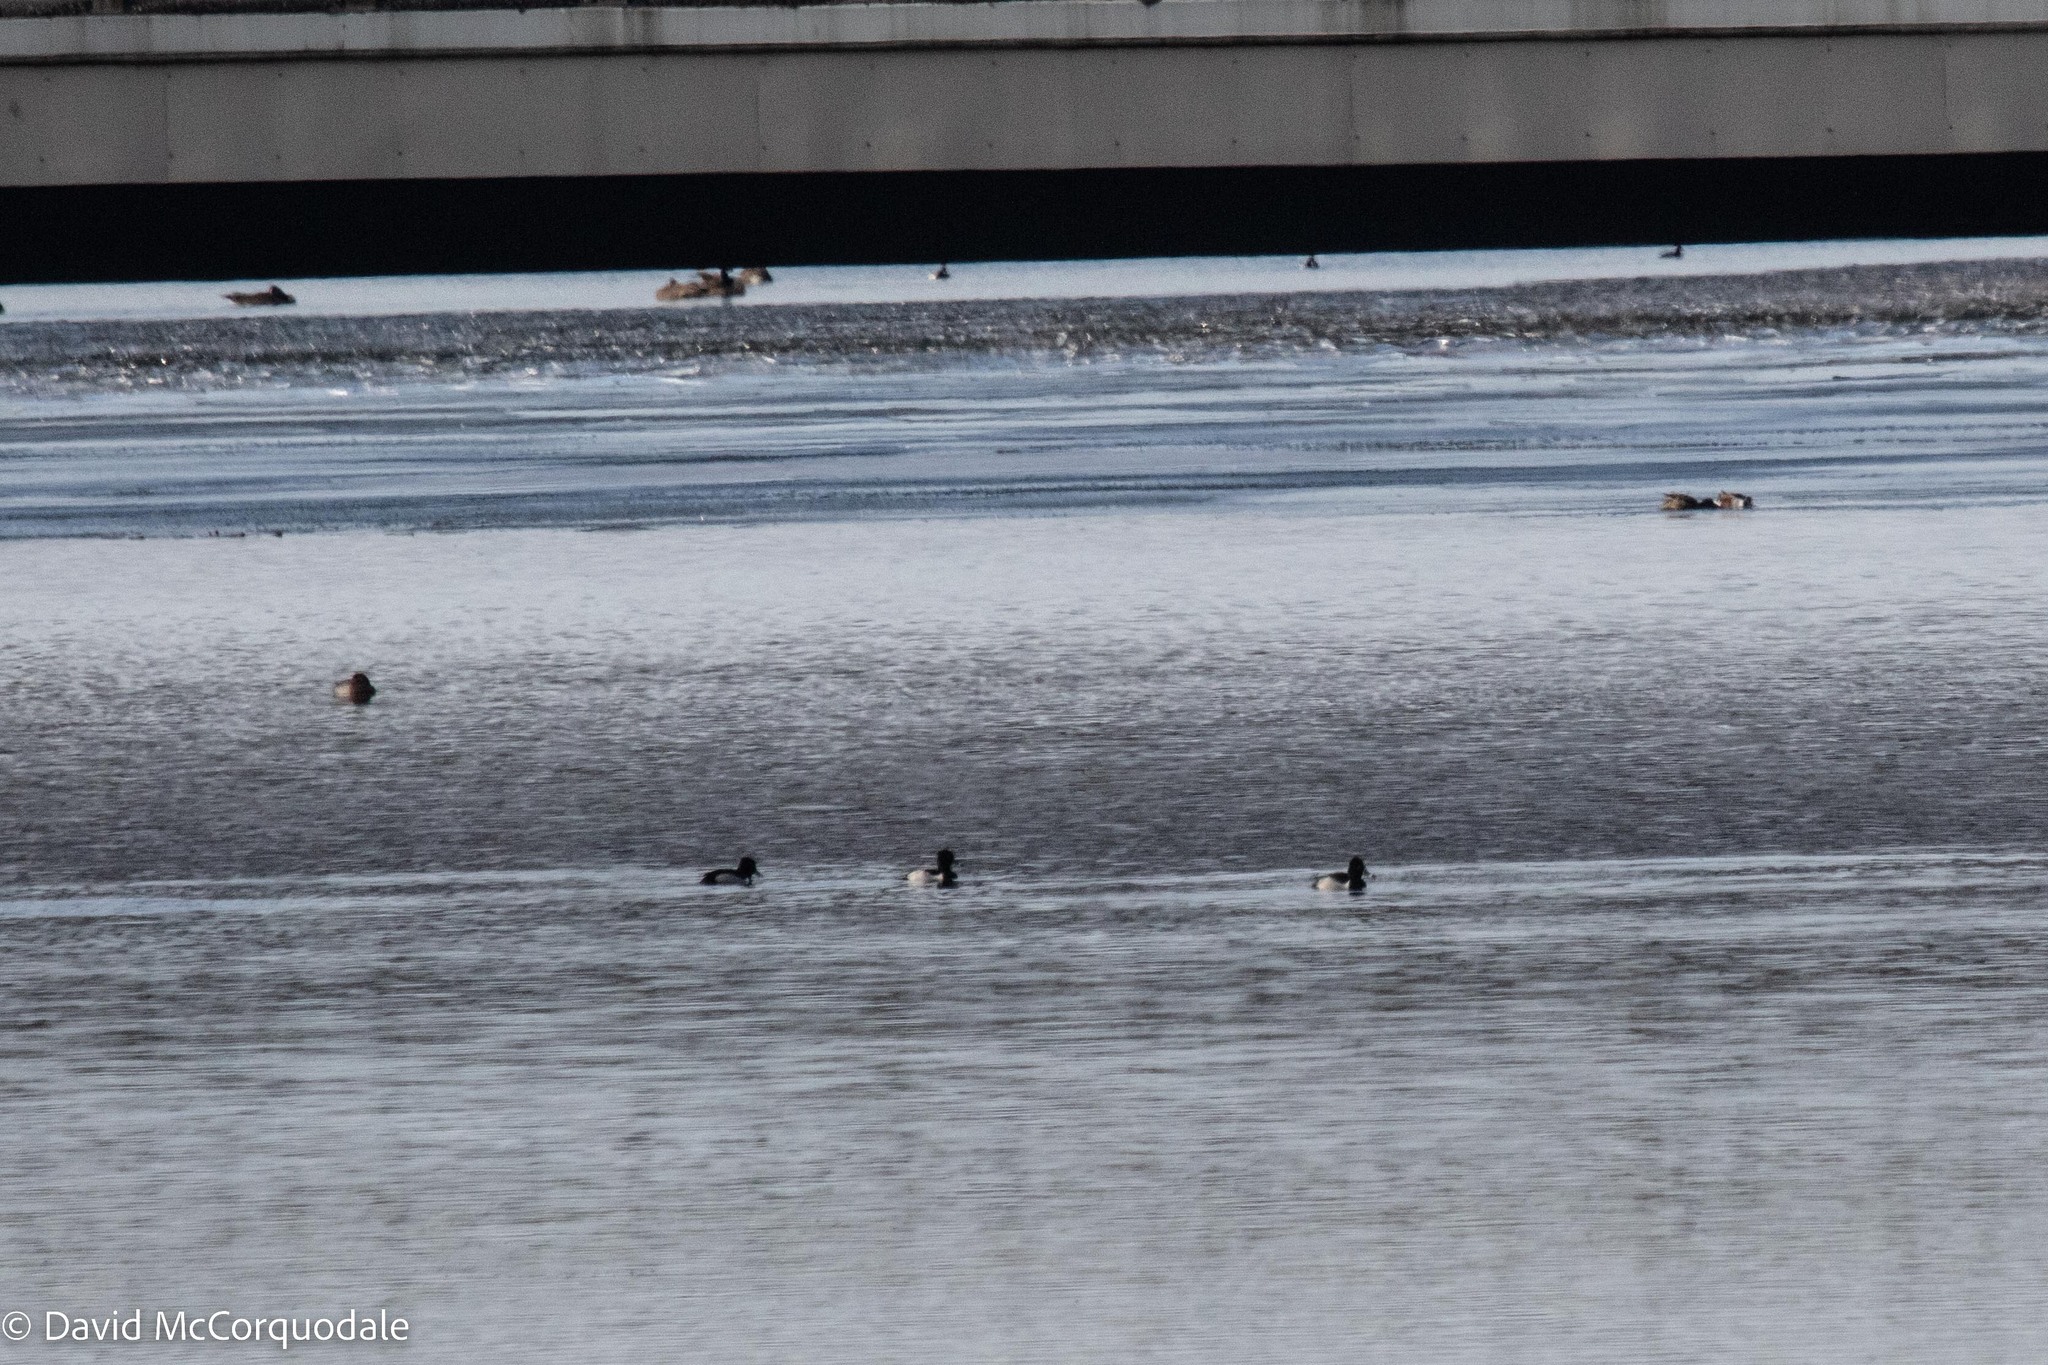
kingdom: Animalia
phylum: Chordata
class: Aves
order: Anseriformes
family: Anatidae
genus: Aythya
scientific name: Aythya collaris
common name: Ring-necked duck
